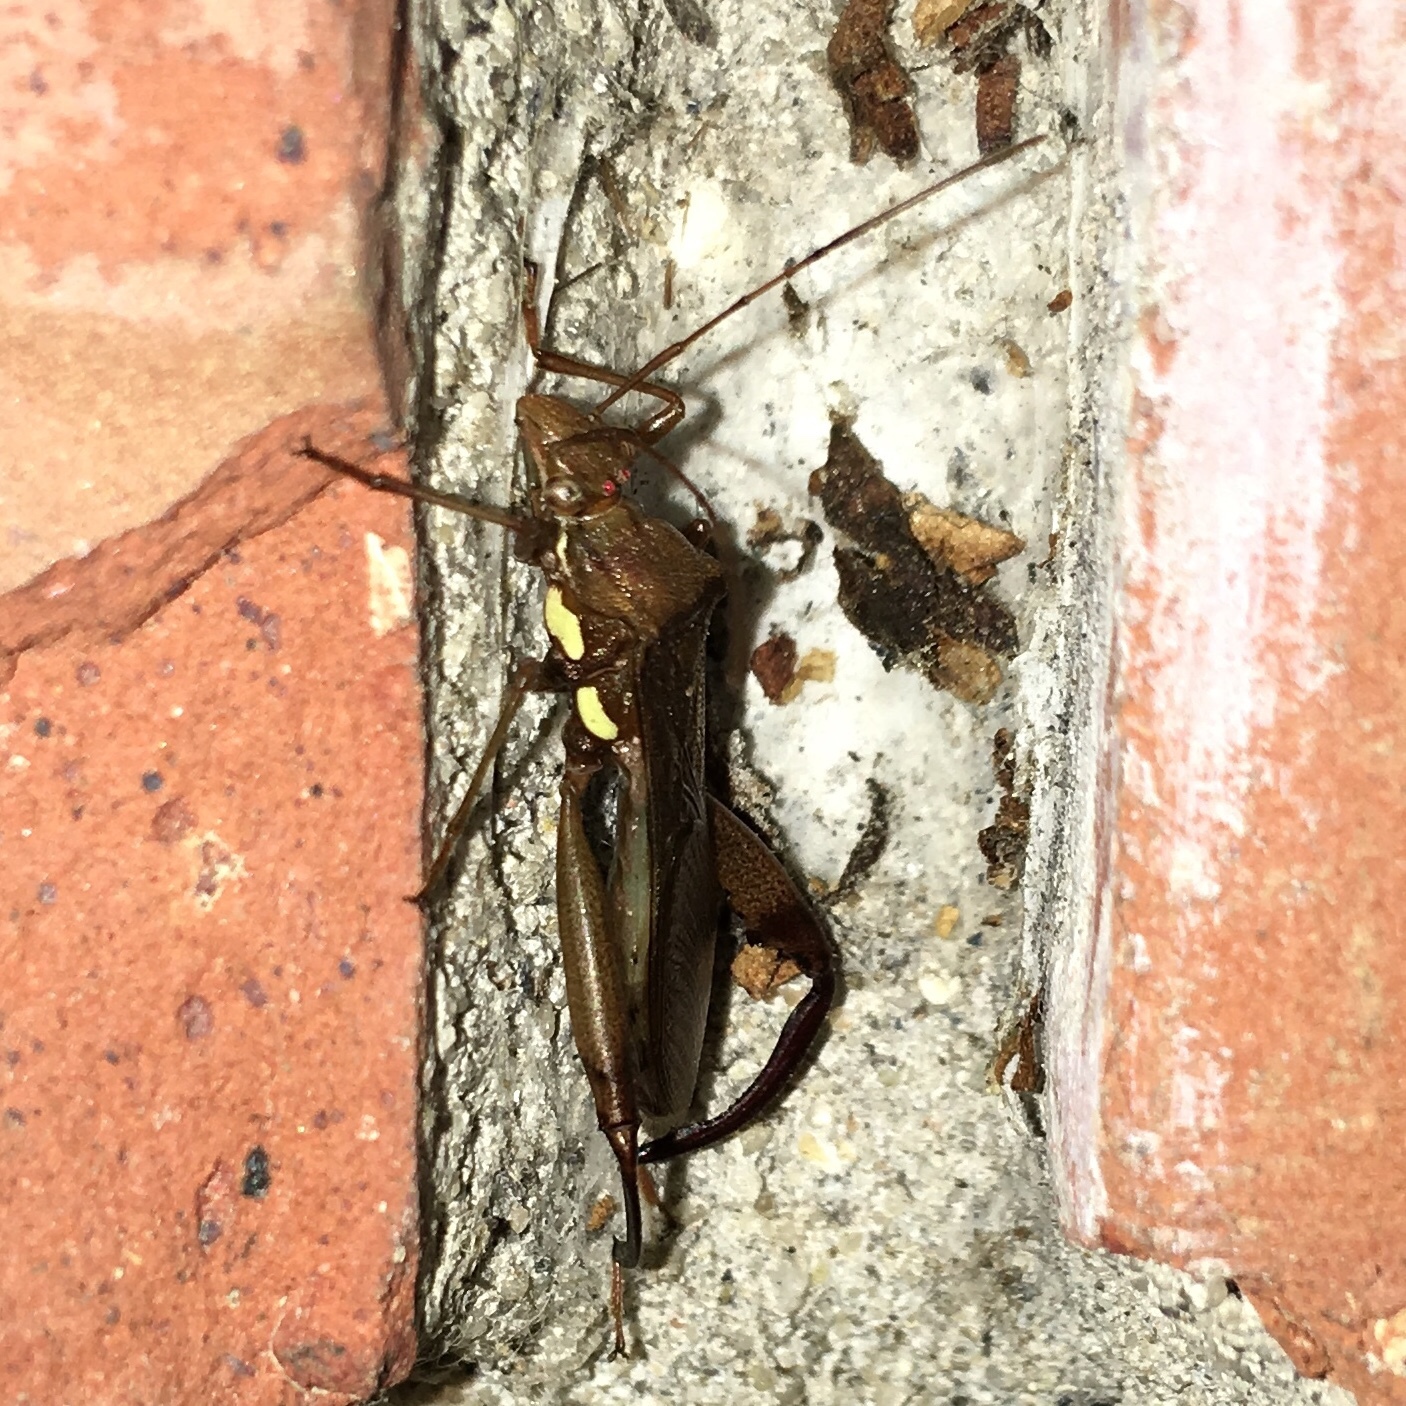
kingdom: Animalia
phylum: Arthropoda
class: Insecta
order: Hemiptera
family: Alydidae
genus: Hyalymenus
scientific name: Hyalymenus tarsatus
